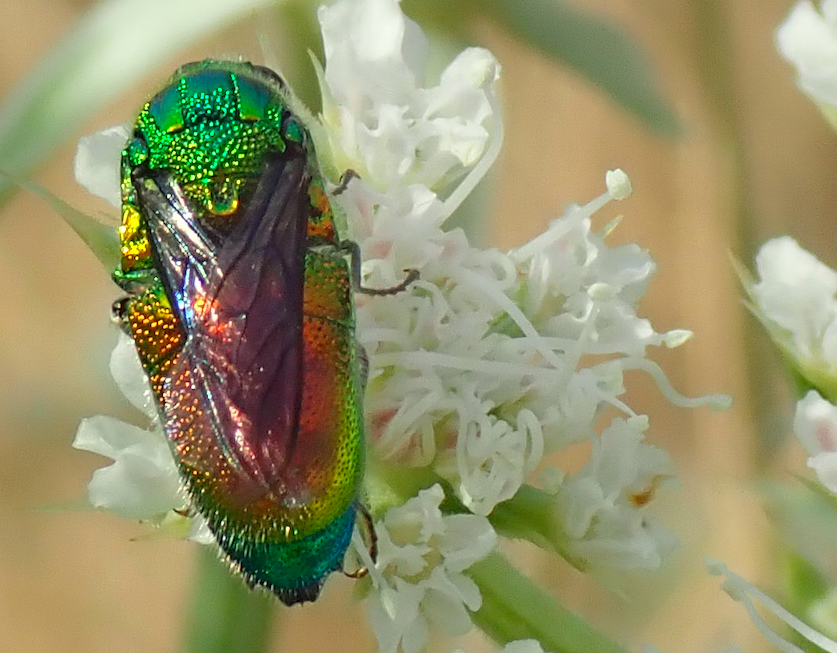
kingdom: Animalia
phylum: Arthropoda
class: Insecta
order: Hymenoptera
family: Chrysididae
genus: Stilbum
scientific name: Stilbum cyanurum
